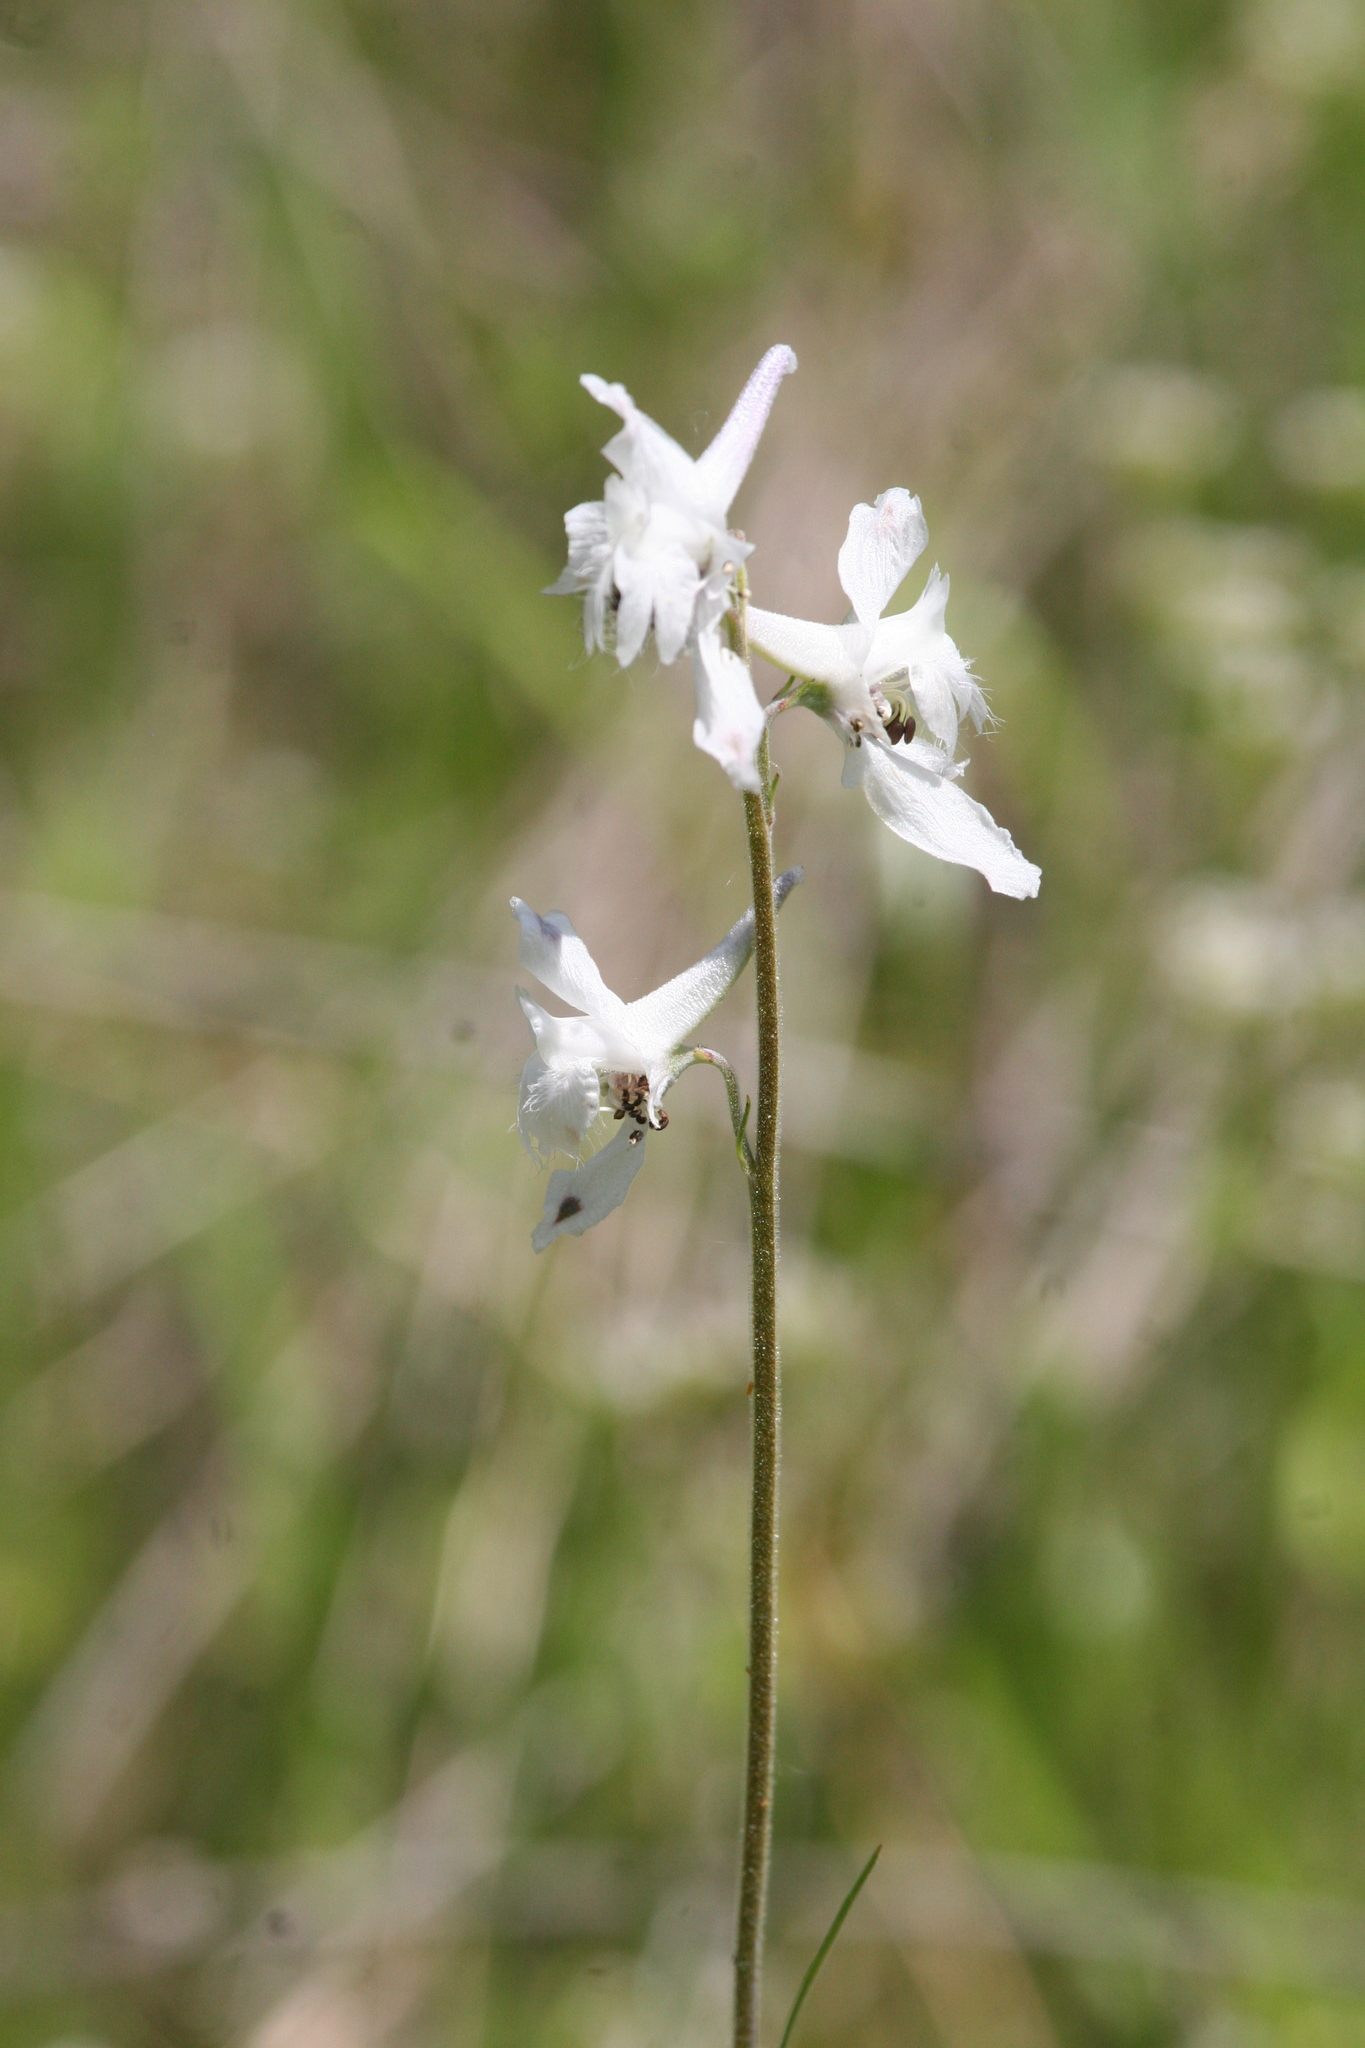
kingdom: Plantae
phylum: Tracheophyta
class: Magnoliopsida
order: Ranunculales
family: Ranunculaceae
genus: Delphinium
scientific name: Delphinium carolinianum
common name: Carolina larkspur
